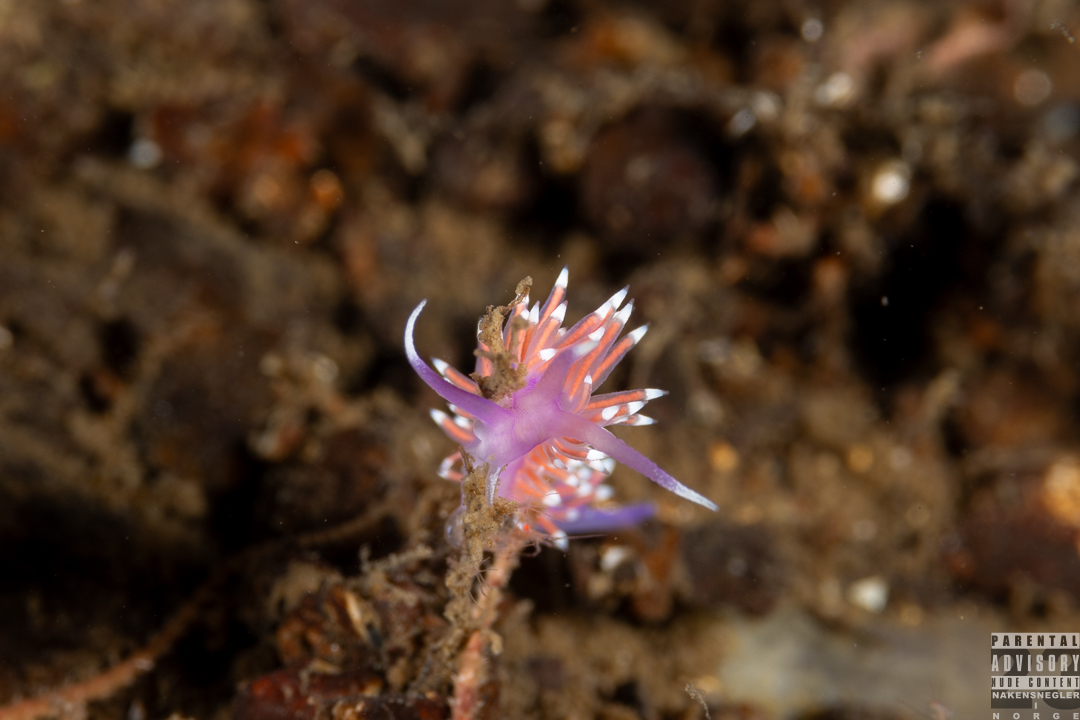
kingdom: Animalia
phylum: Mollusca
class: Gastropoda
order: Nudibranchia
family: Flabellinidae
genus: Edmundsella
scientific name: Edmundsella pedata
